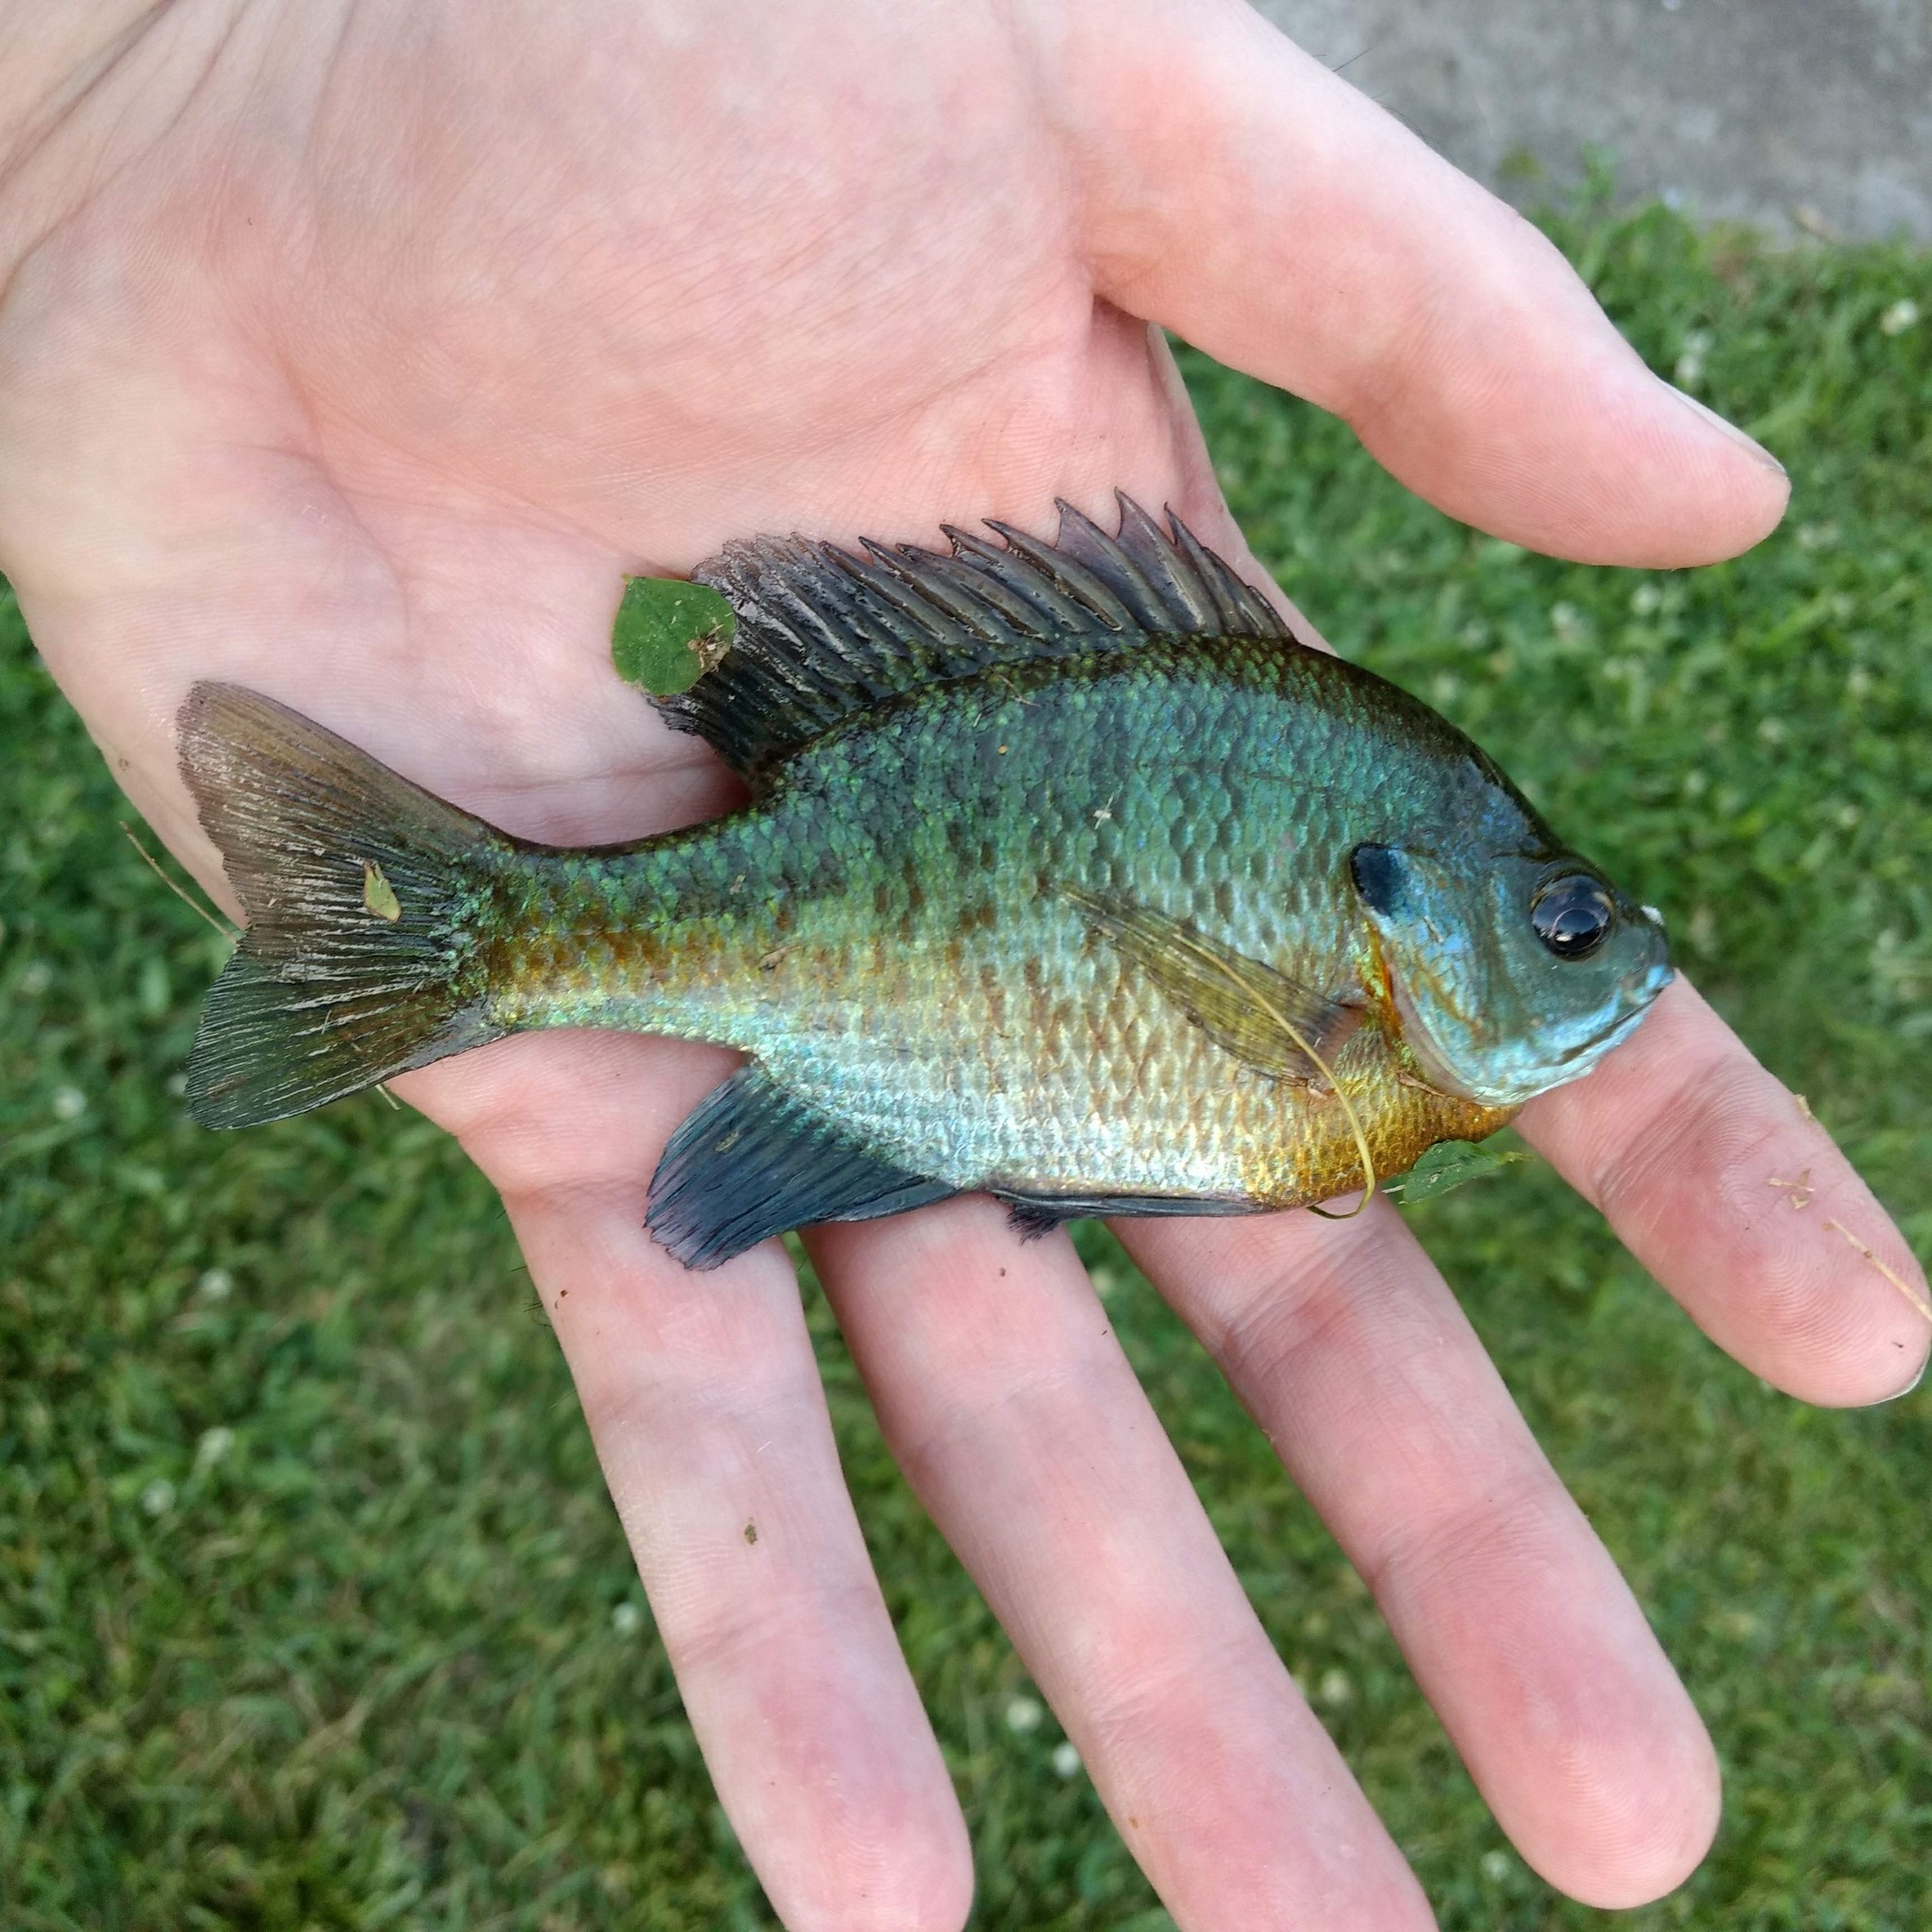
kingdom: Animalia
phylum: Chordata
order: Perciformes
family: Centrarchidae
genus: Lepomis
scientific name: Lepomis macrochirus
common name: Bluegill
